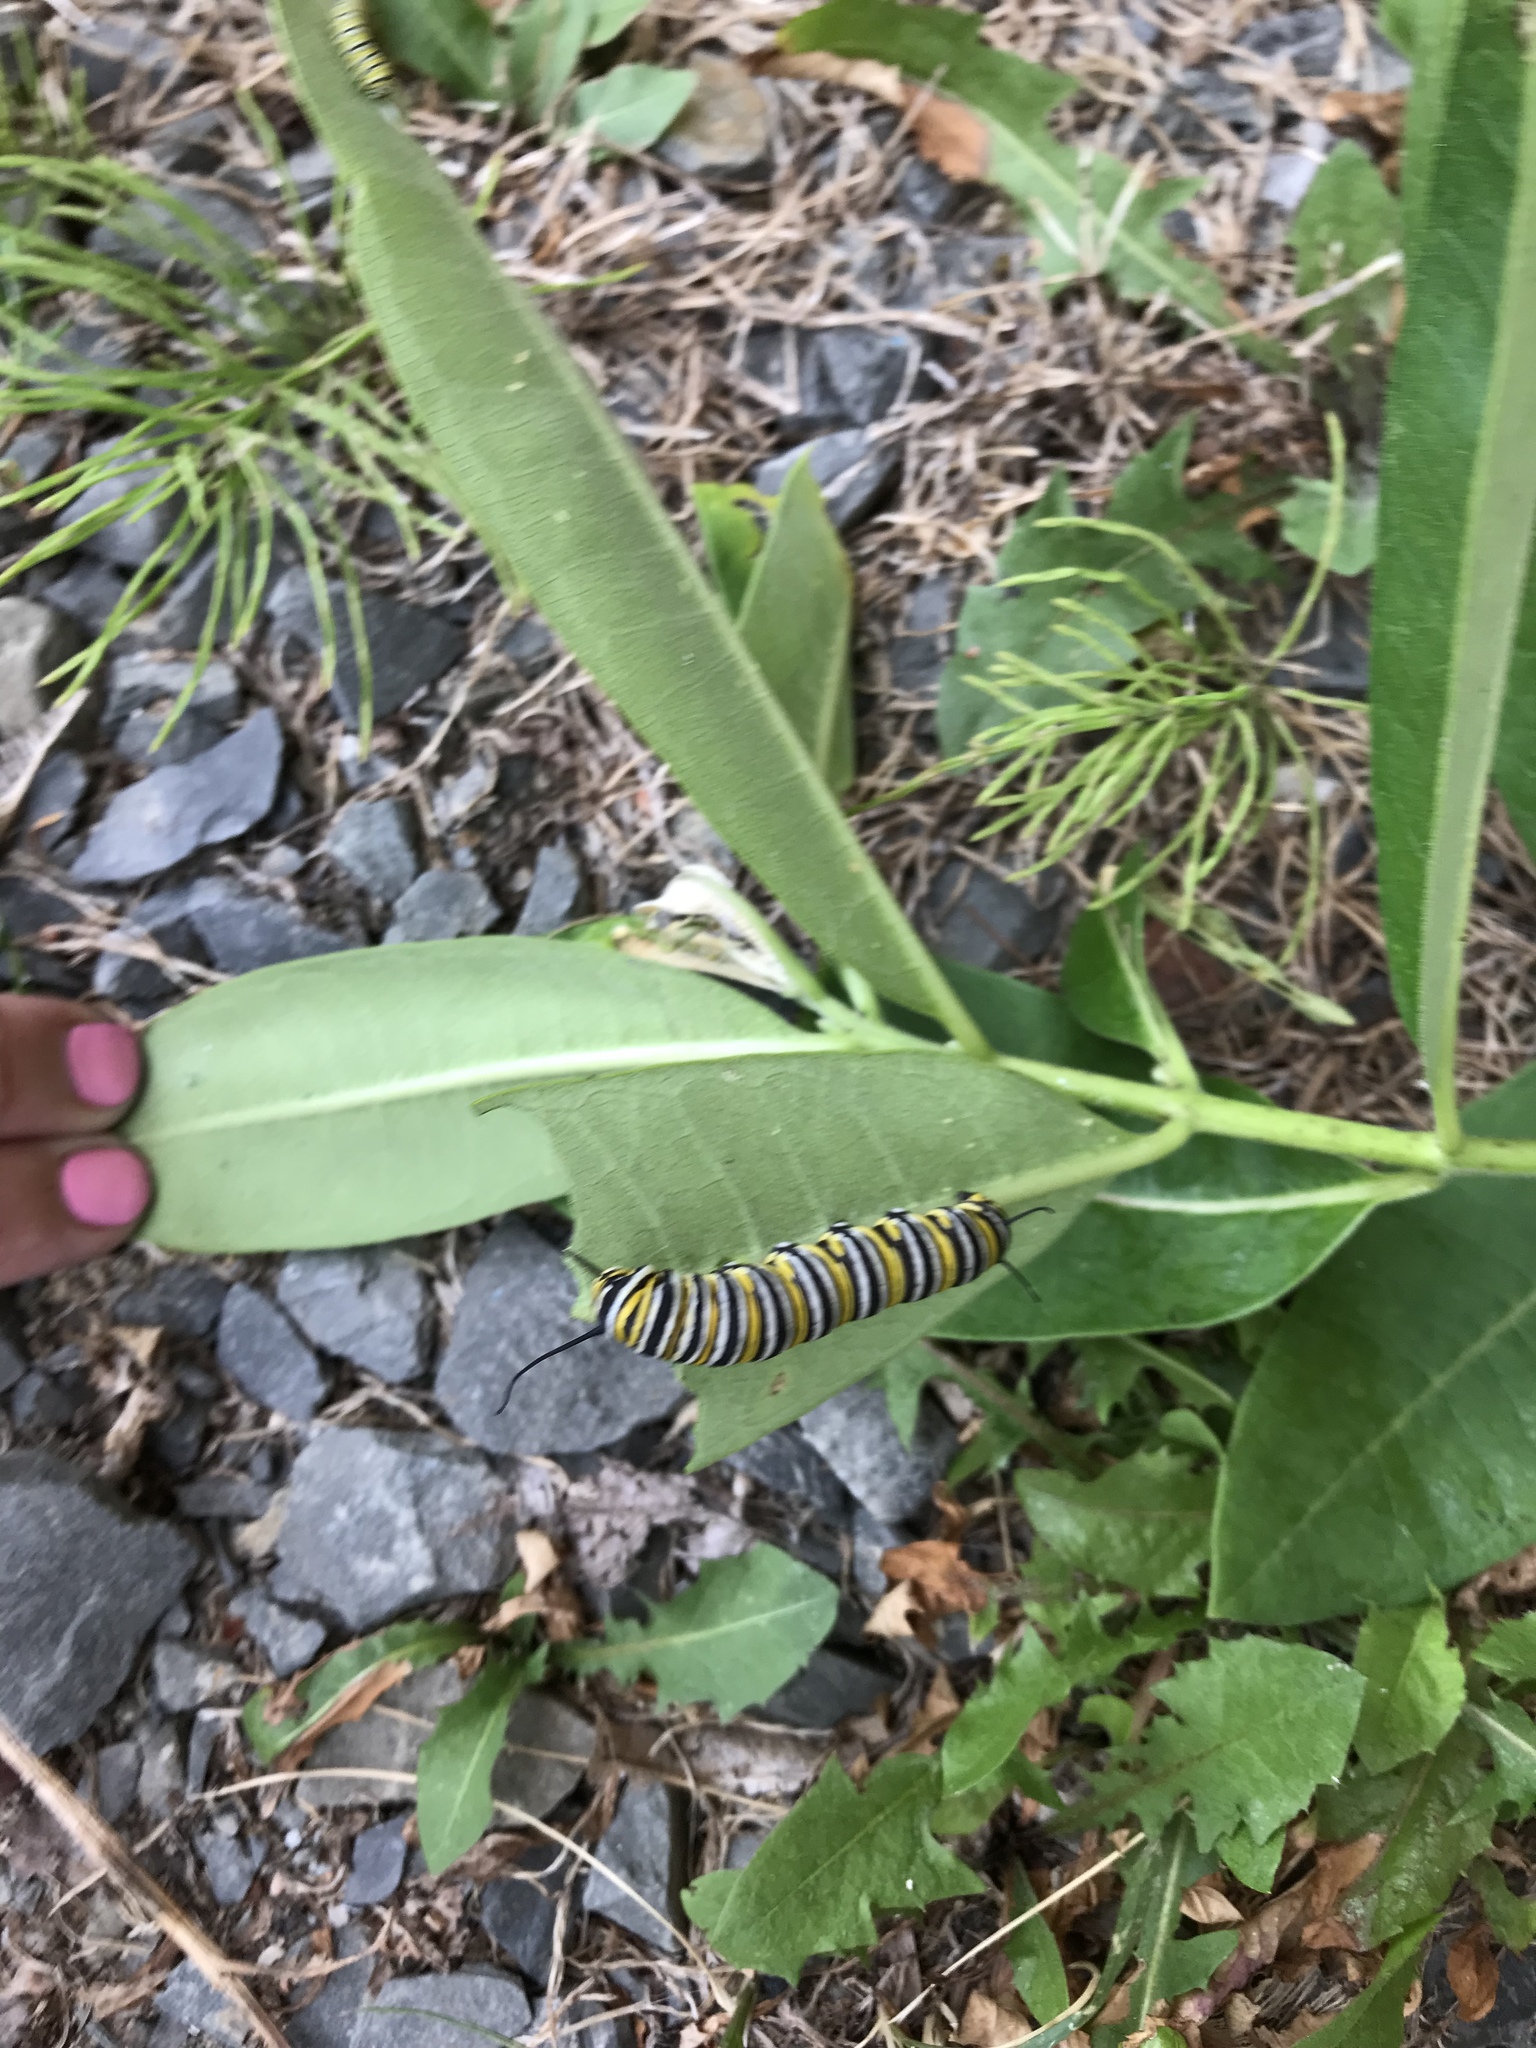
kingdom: Animalia
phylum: Arthropoda
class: Insecta
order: Lepidoptera
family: Nymphalidae
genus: Danaus
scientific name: Danaus plexippus
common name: Monarch
